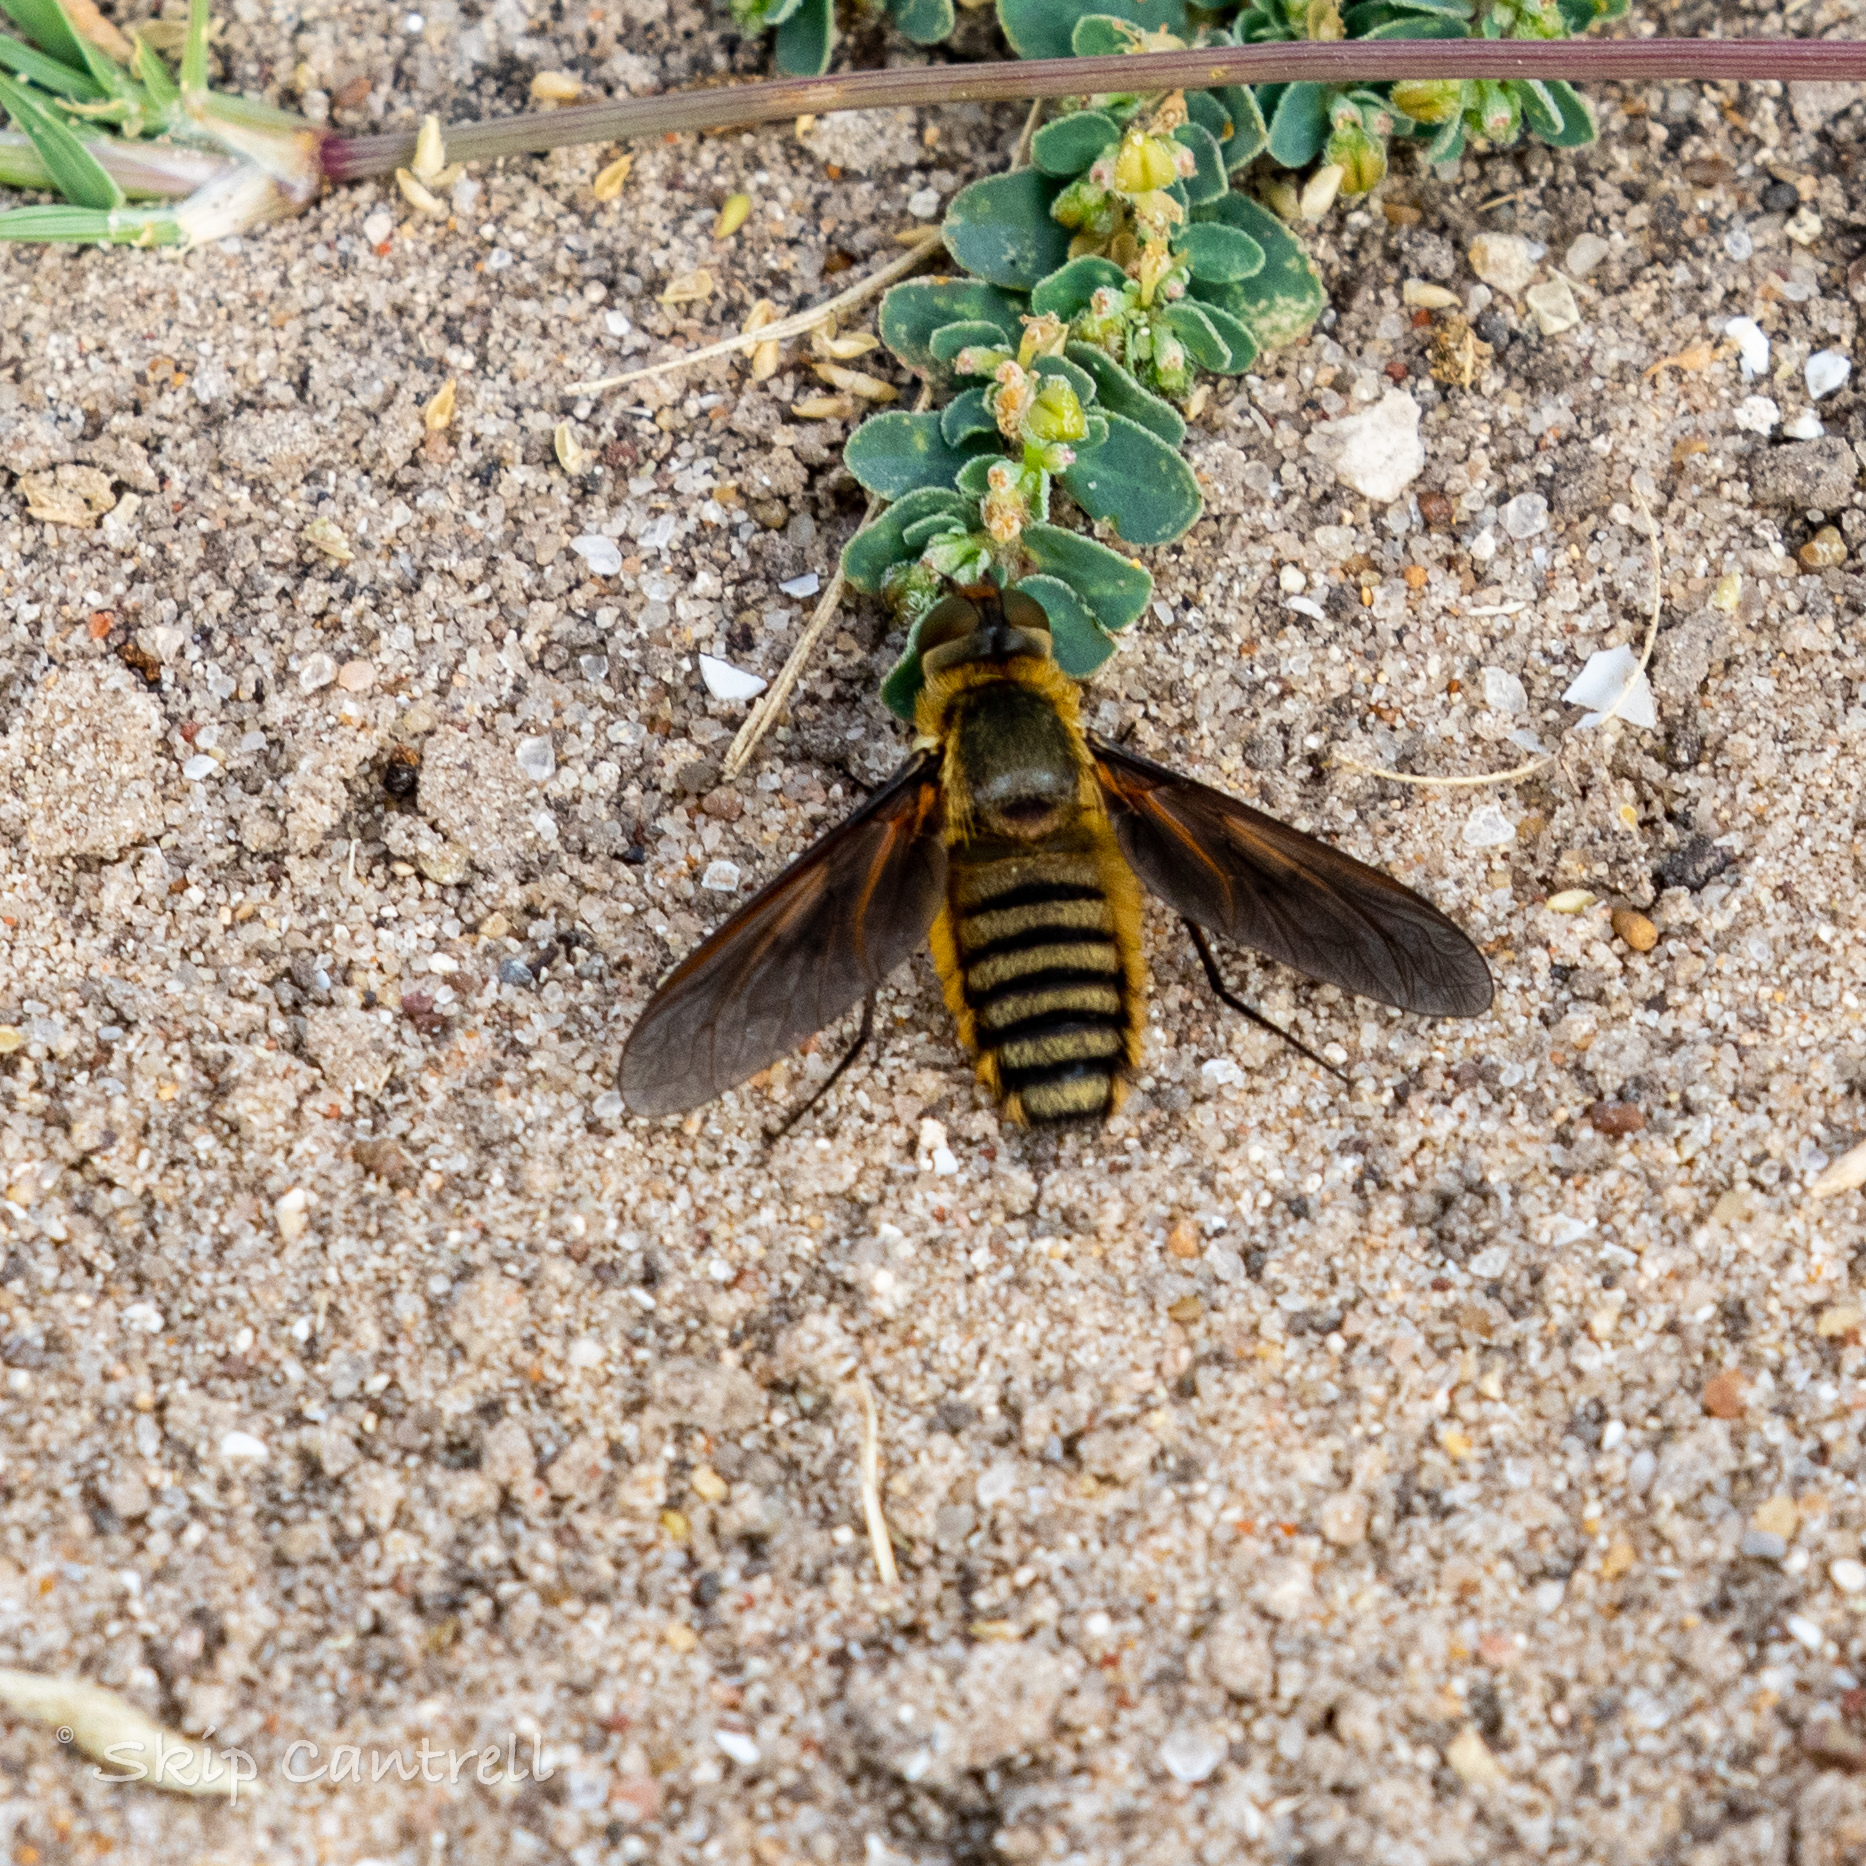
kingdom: Animalia
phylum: Arthropoda
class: Insecta
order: Diptera
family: Bombyliidae
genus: Poecilanthrax
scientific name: Poecilanthrax lucifer
